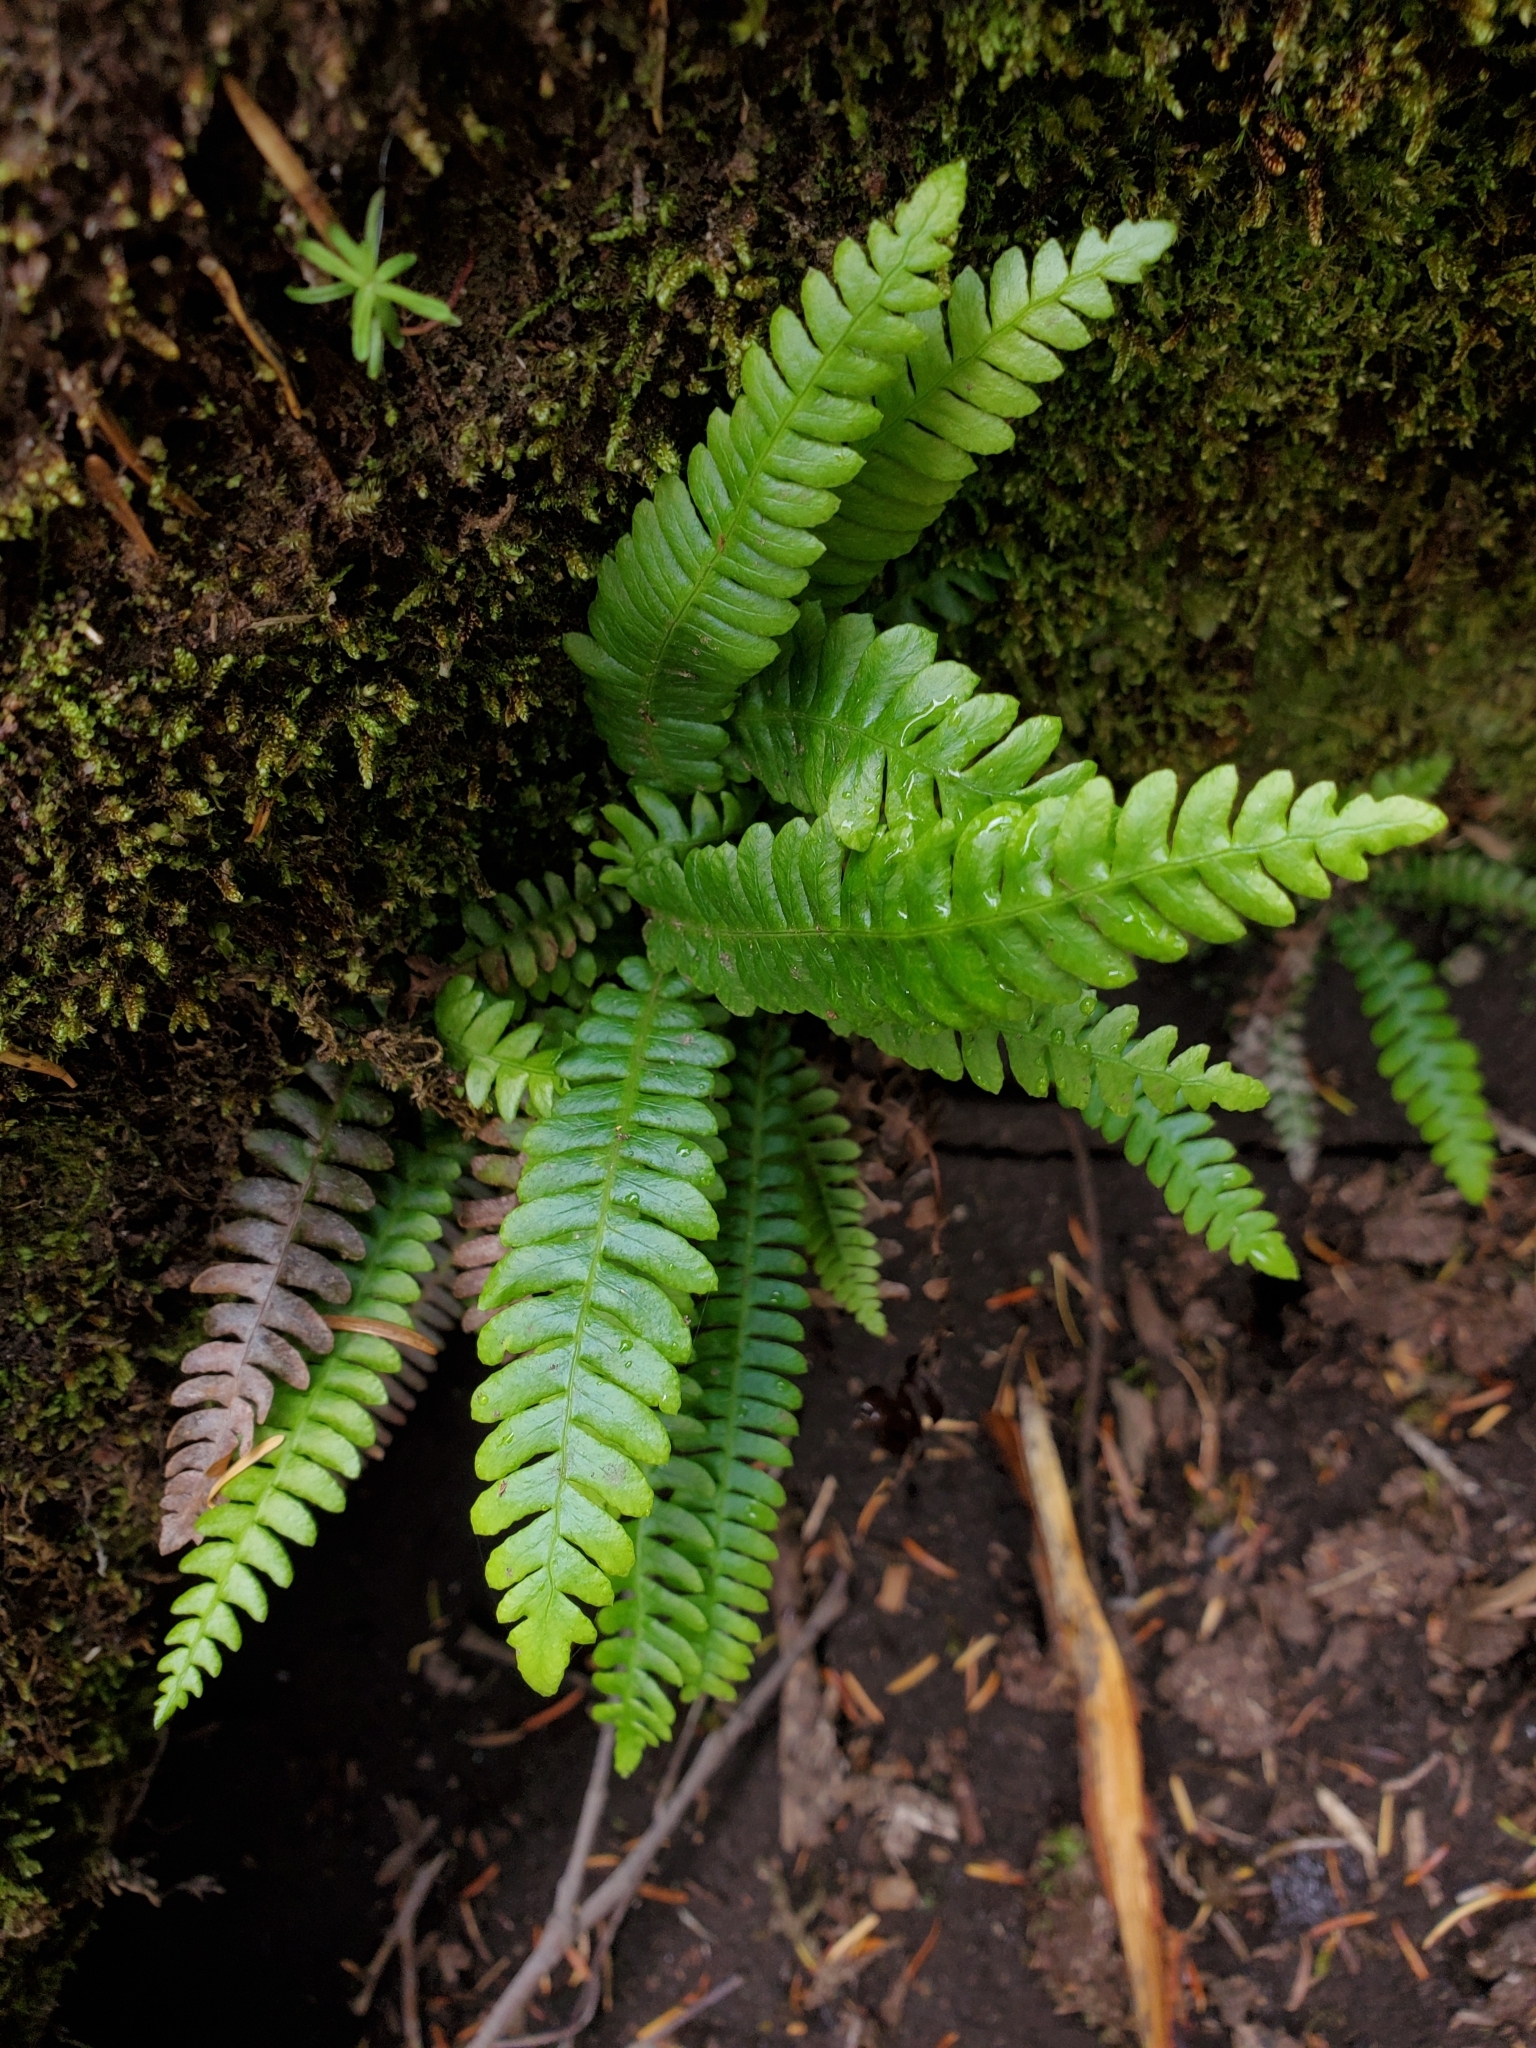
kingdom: Plantae
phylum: Tracheophyta
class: Polypodiopsida
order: Polypodiales
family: Blechnaceae
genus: Struthiopteris
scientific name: Struthiopteris spicant
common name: Deer fern
